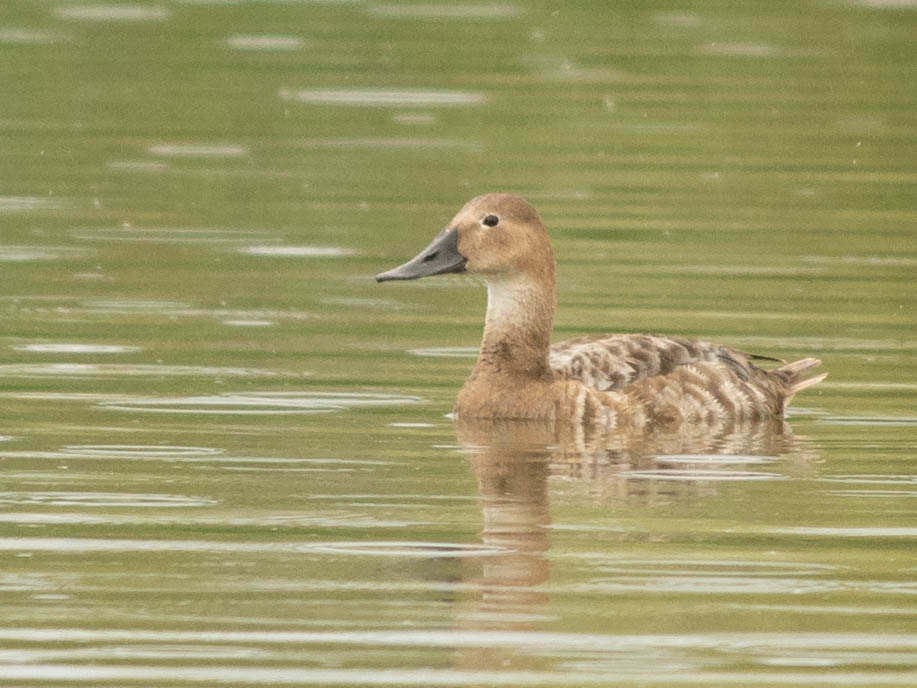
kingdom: Animalia
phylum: Chordata
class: Aves
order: Anseriformes
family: Anatidae
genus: Aythya
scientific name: Aythya valisineria
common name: Canvasback
